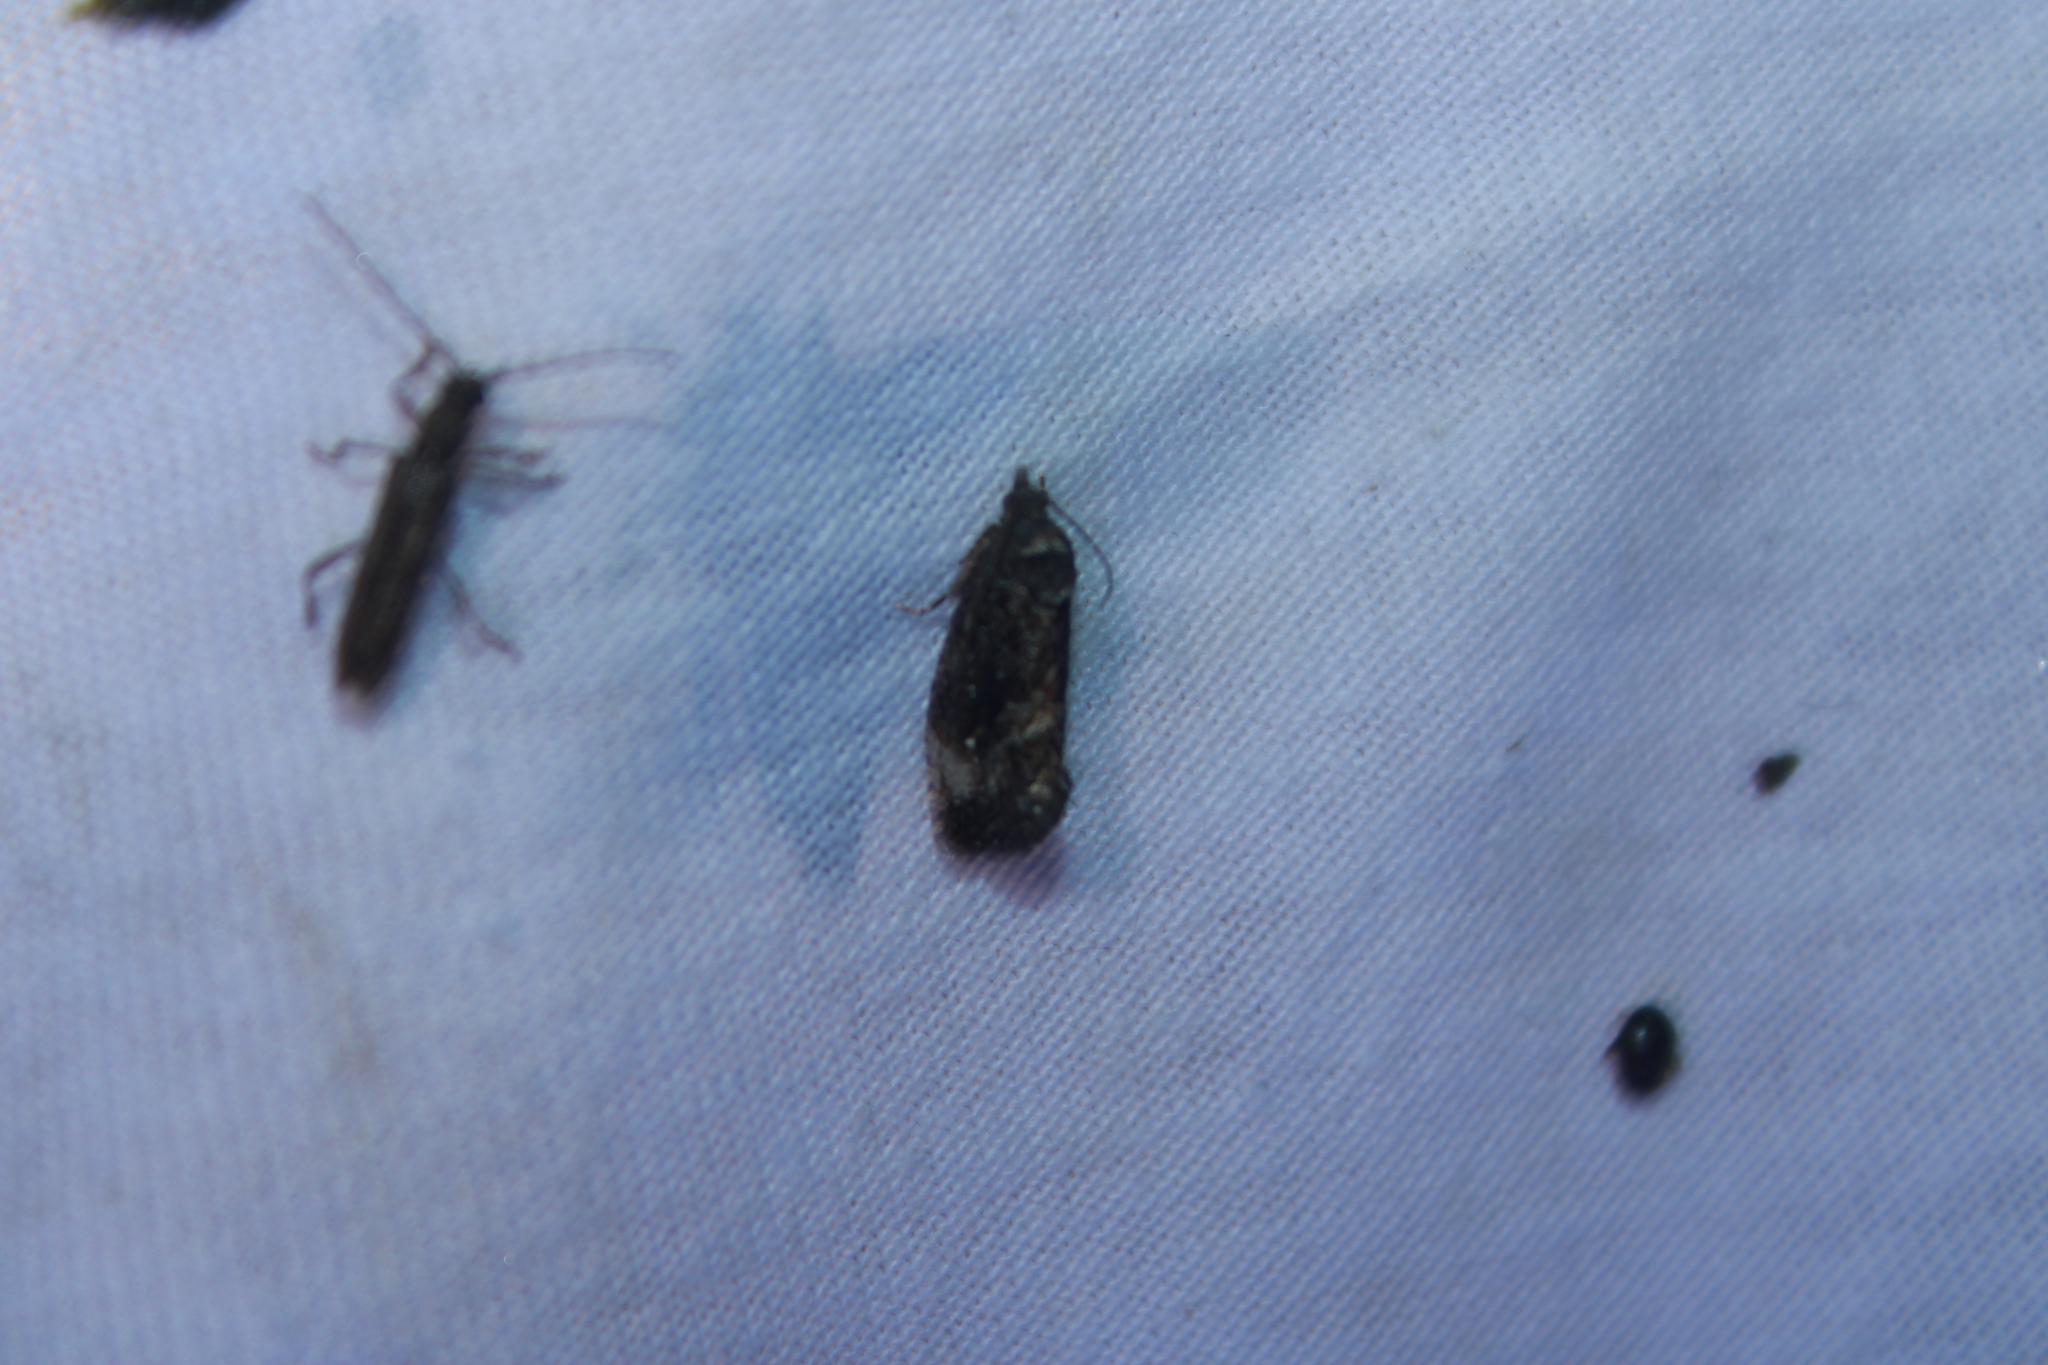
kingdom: Animalia
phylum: Arthropoda
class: Insecta
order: Lepidoptera
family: Tortricidae
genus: Gymnandrosoma
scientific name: Gymnandrosoma punctidiscanum
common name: Dotted ecdytolopha moth
